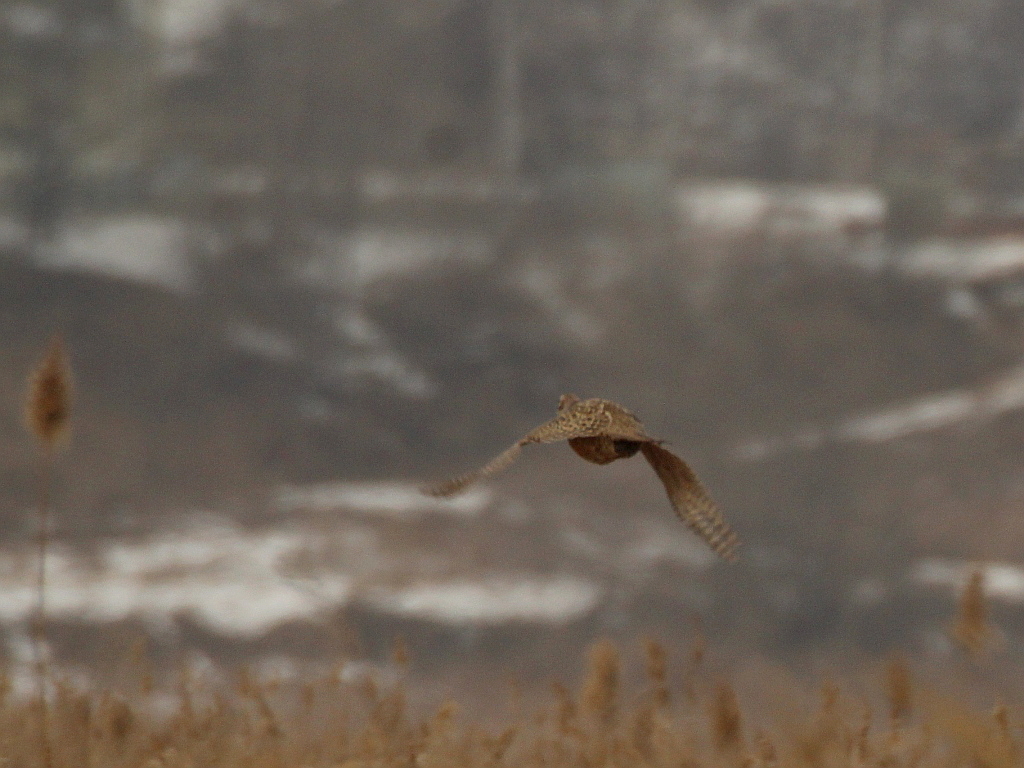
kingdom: Animalia
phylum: Chordata
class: Aves
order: Galliformes
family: Phasianidae
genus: Phasianus
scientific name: Phasianus colchicus
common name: Common pheasant
